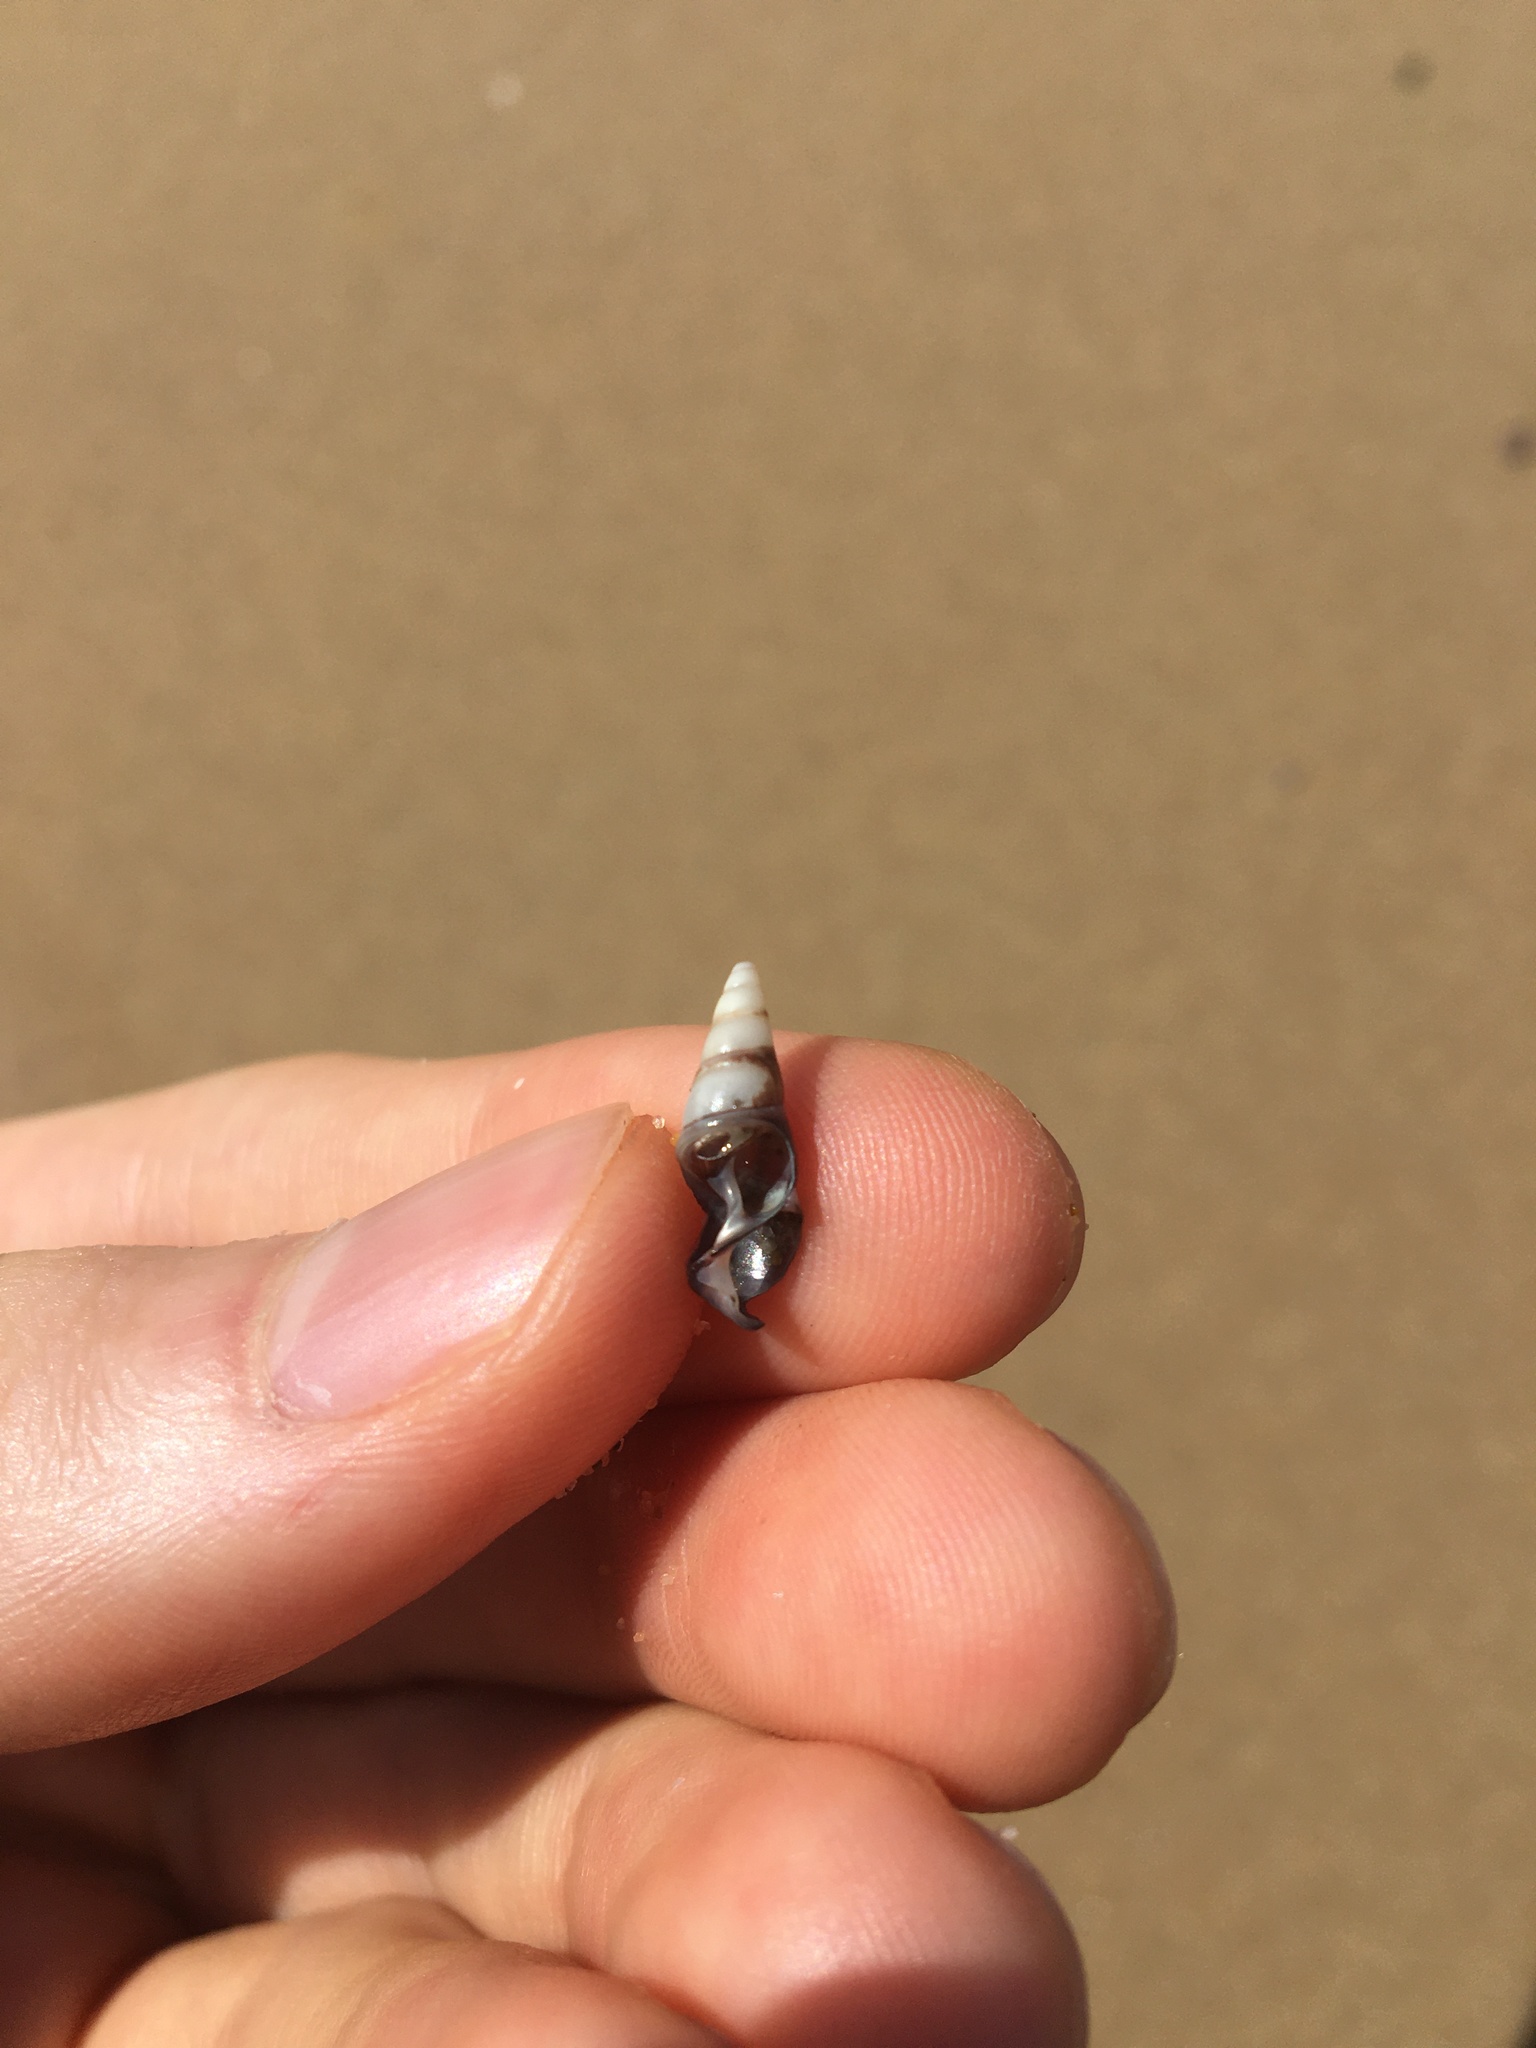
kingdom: Animalia
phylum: Mollusca
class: Gastropoda
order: Trochida
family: Trochidae
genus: Bankivia
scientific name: Bankivia fasciata
